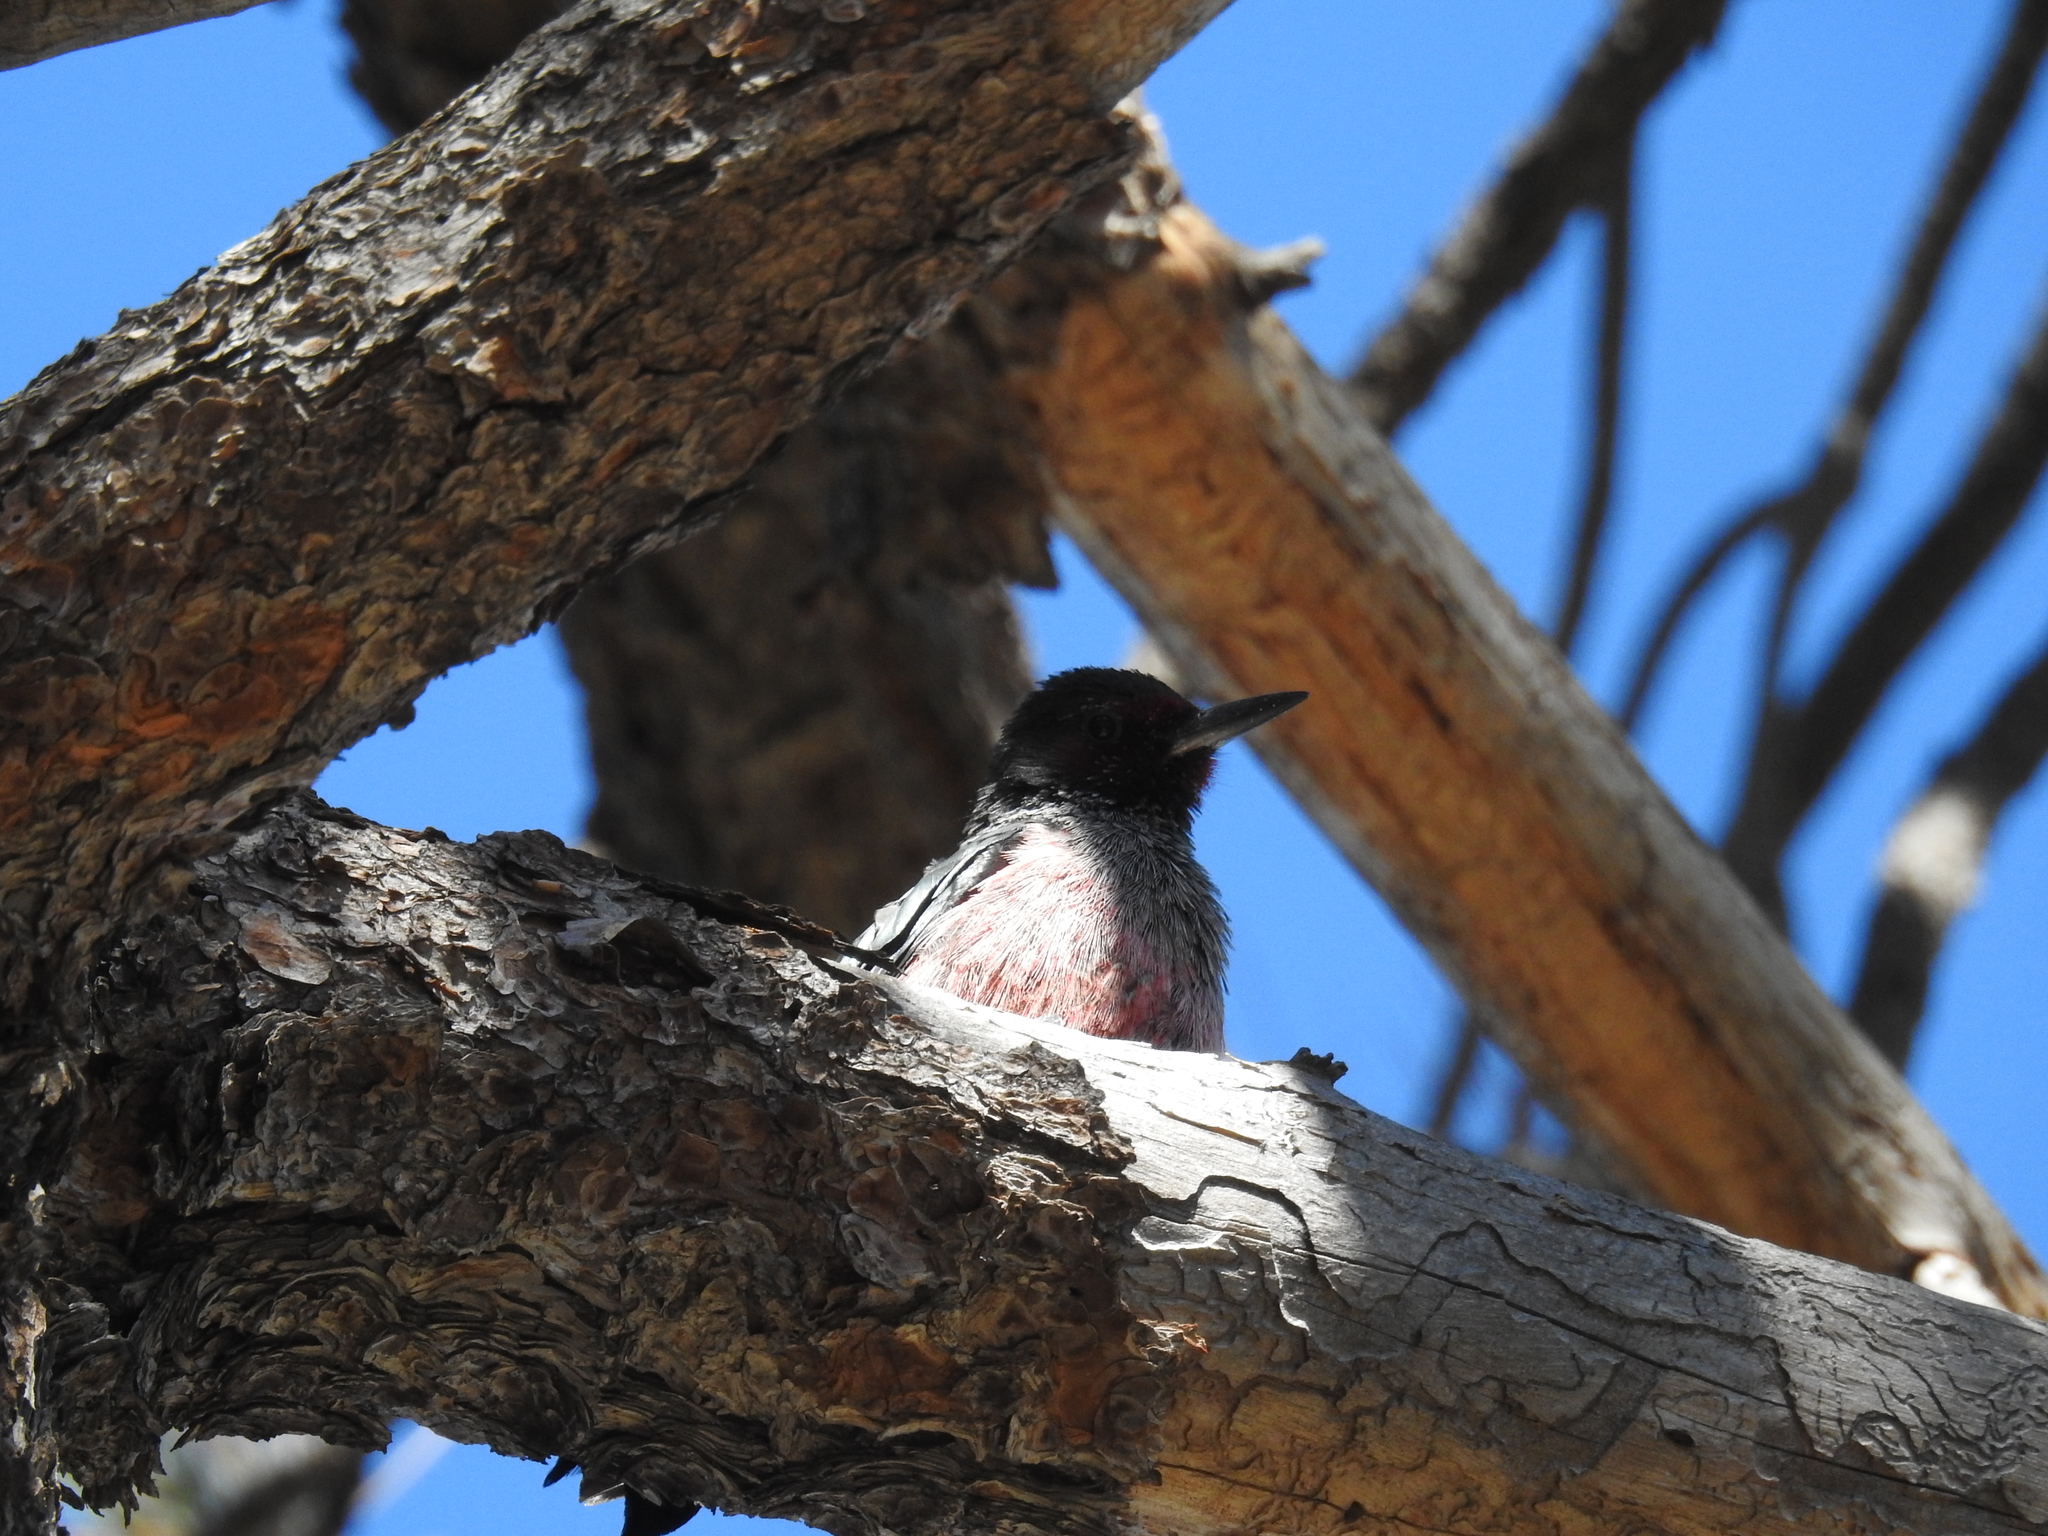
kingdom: Animalia
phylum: Chordata
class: Aves
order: Piciformes
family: Picidae
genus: Melanerpes
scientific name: Melanerpes lewis
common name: Lewis's woodpecker
